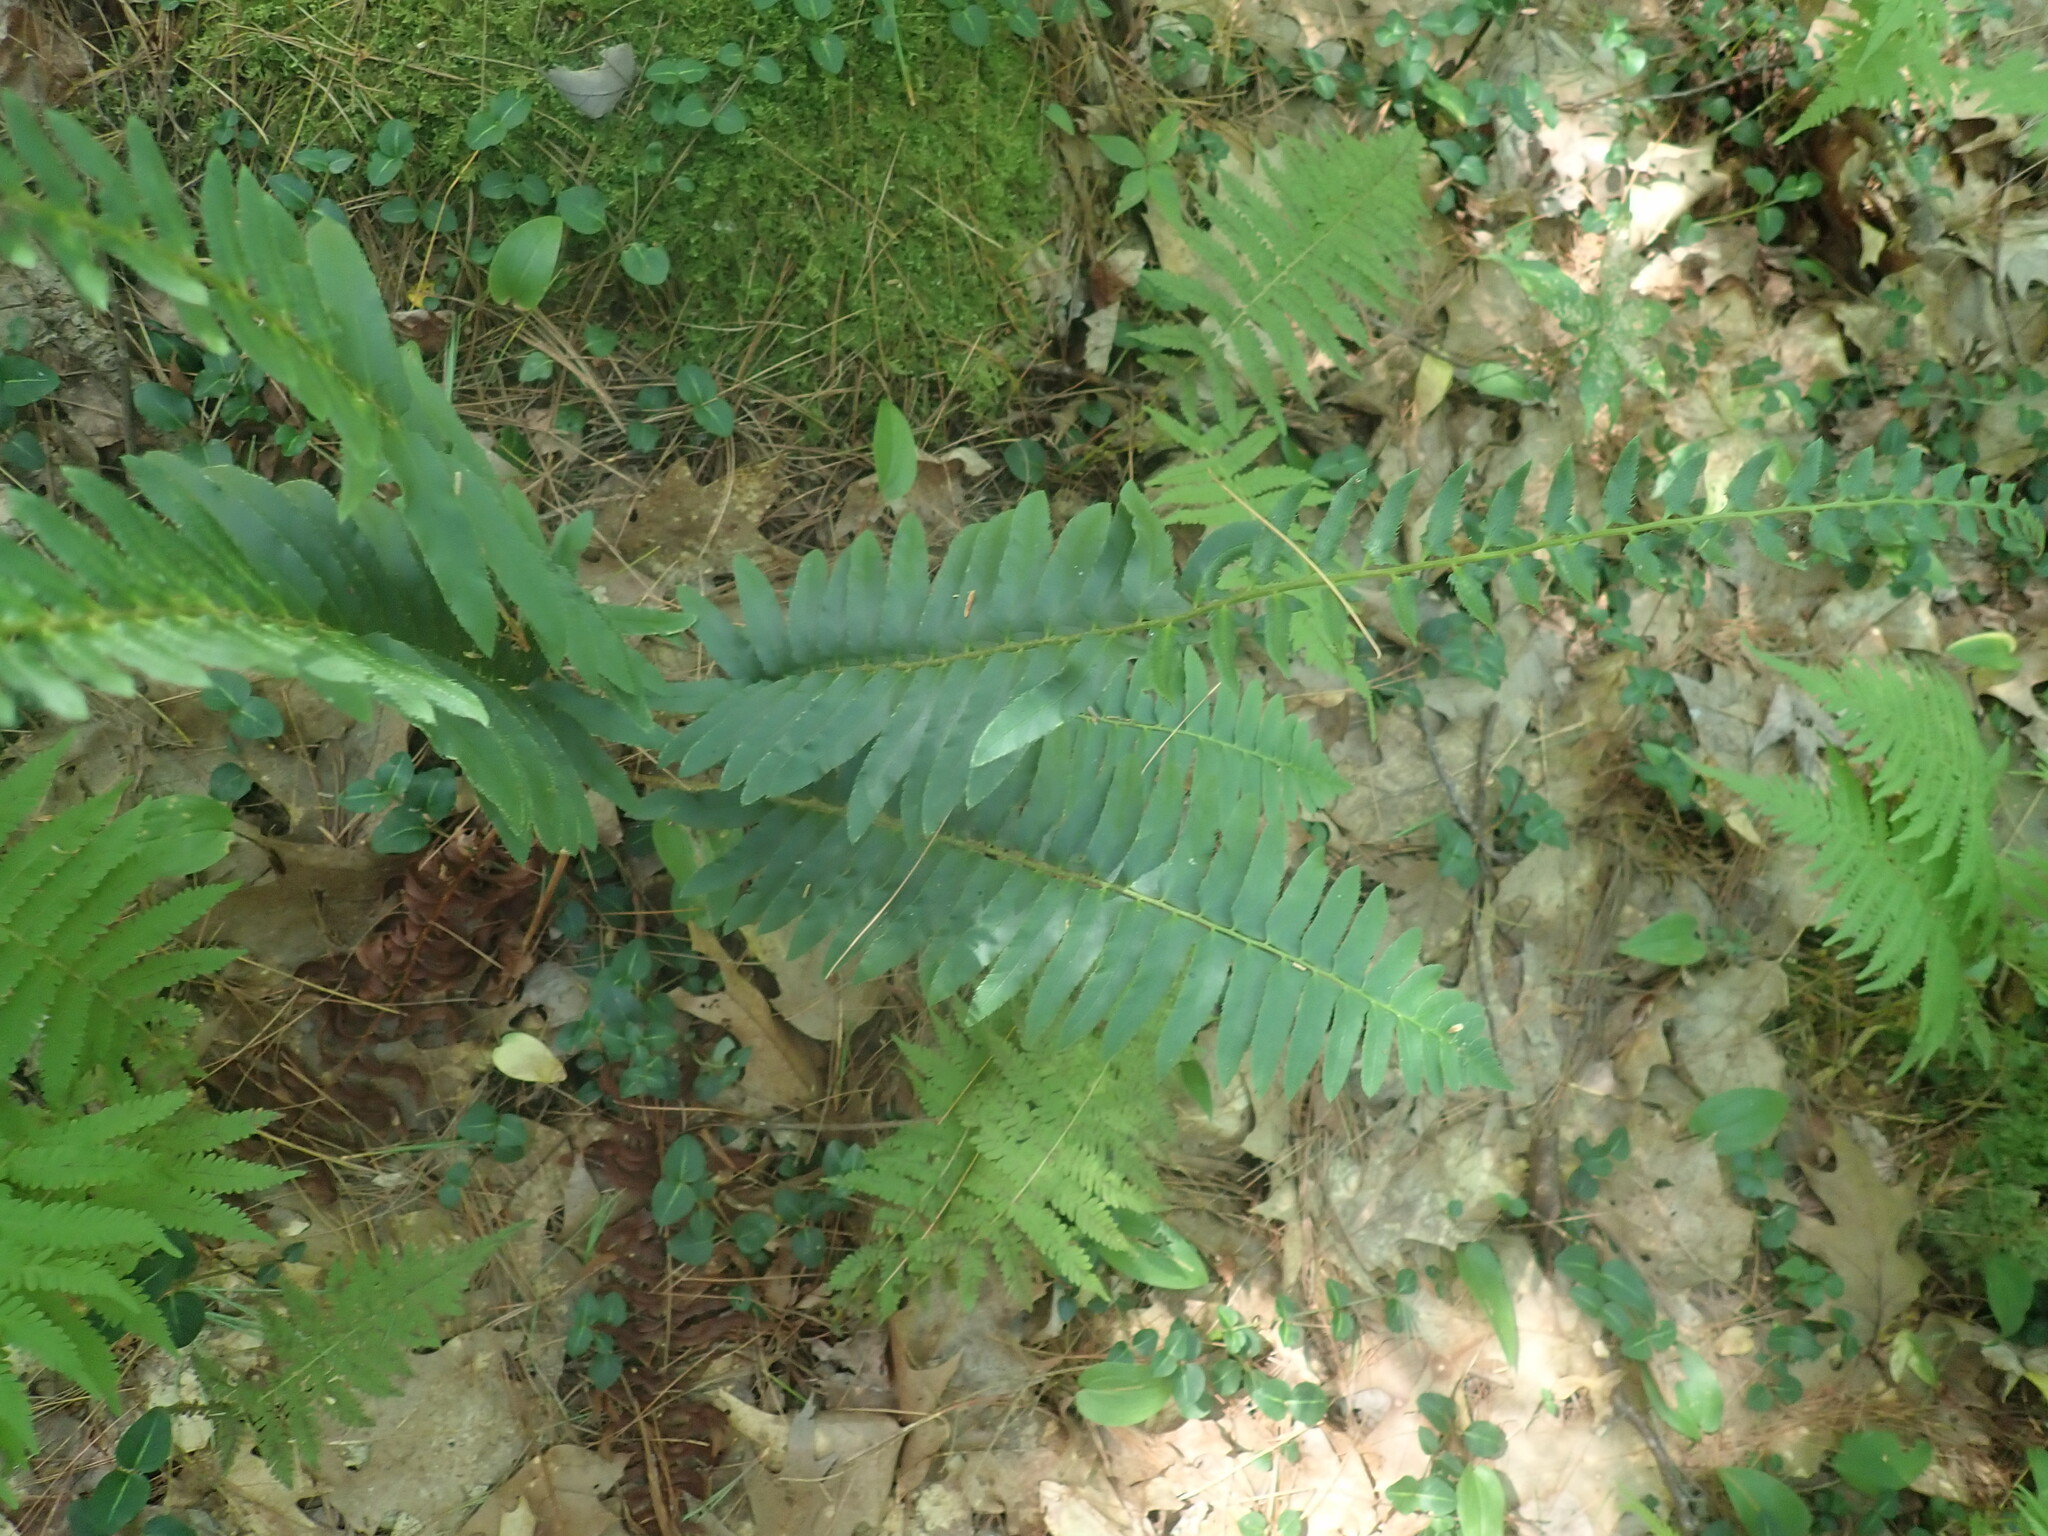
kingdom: Plantae
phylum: Tracheophyta
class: Polypodiopsida
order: Polypodiales
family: Dryopteridaceae
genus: Polystichum
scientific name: Polystichum acrostichoides
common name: Christmas fern
